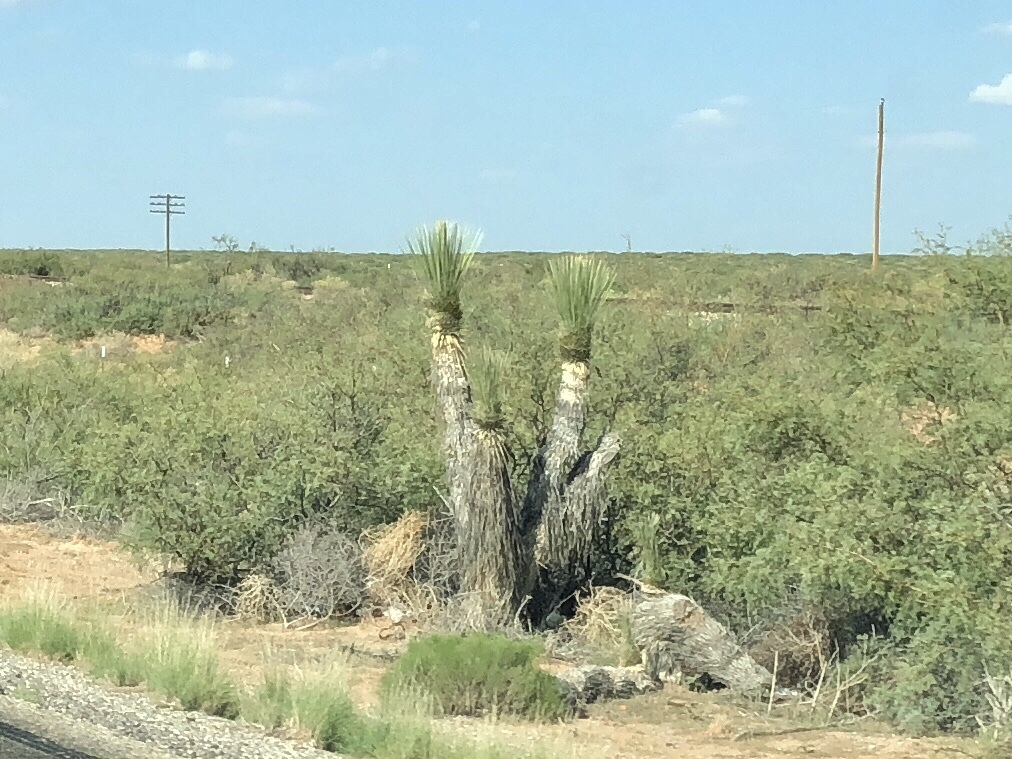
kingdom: Plantae
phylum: Tracheophyta
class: Liliopsida
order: Asparagales
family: Asparagaceae
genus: Yucca
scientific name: Yucca elata
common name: Palmella
